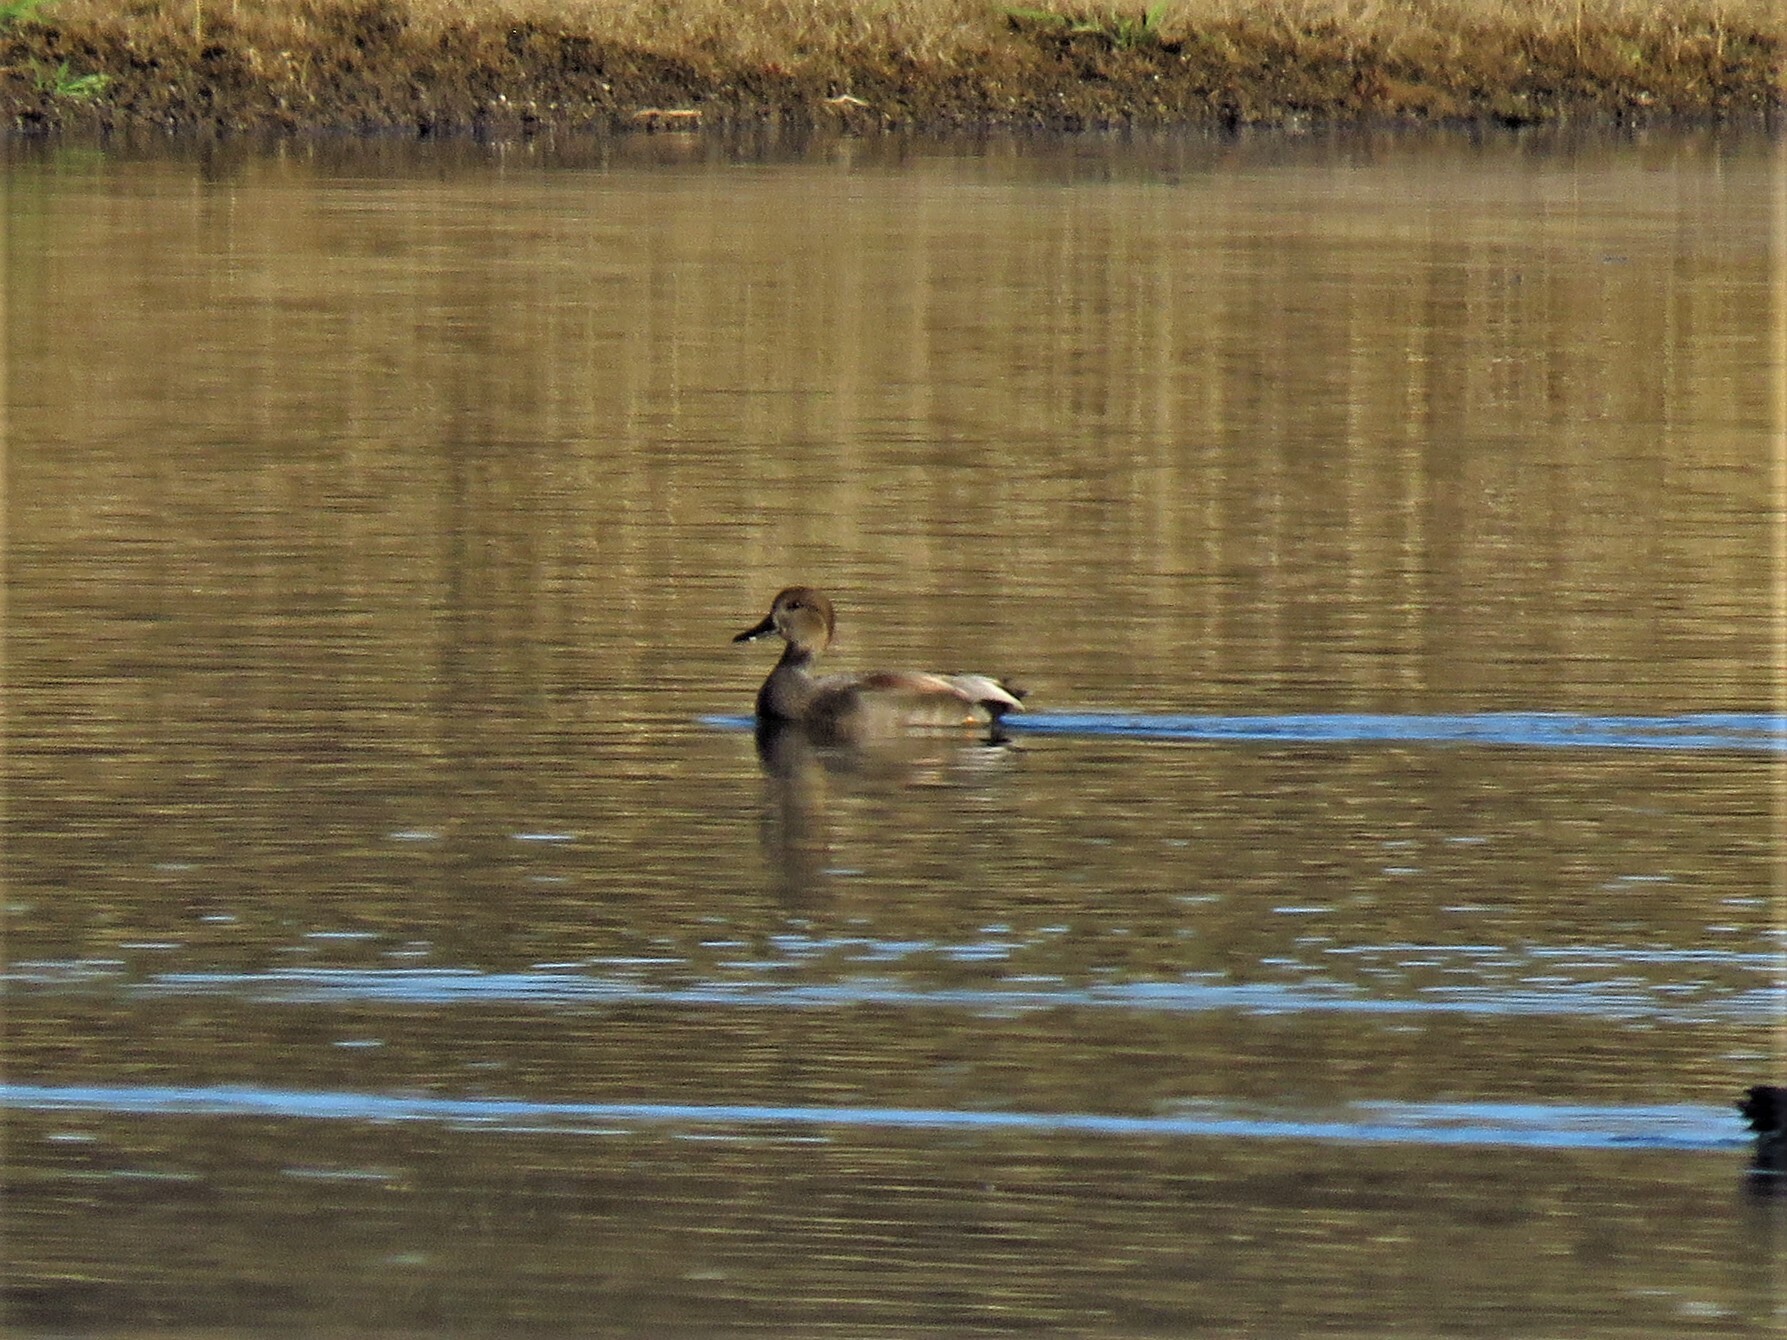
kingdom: Animalia
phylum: Chordata
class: Aves
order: Anseriformes
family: Anatidae
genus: Mareca
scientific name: Mareca strepera
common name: Gadwall
